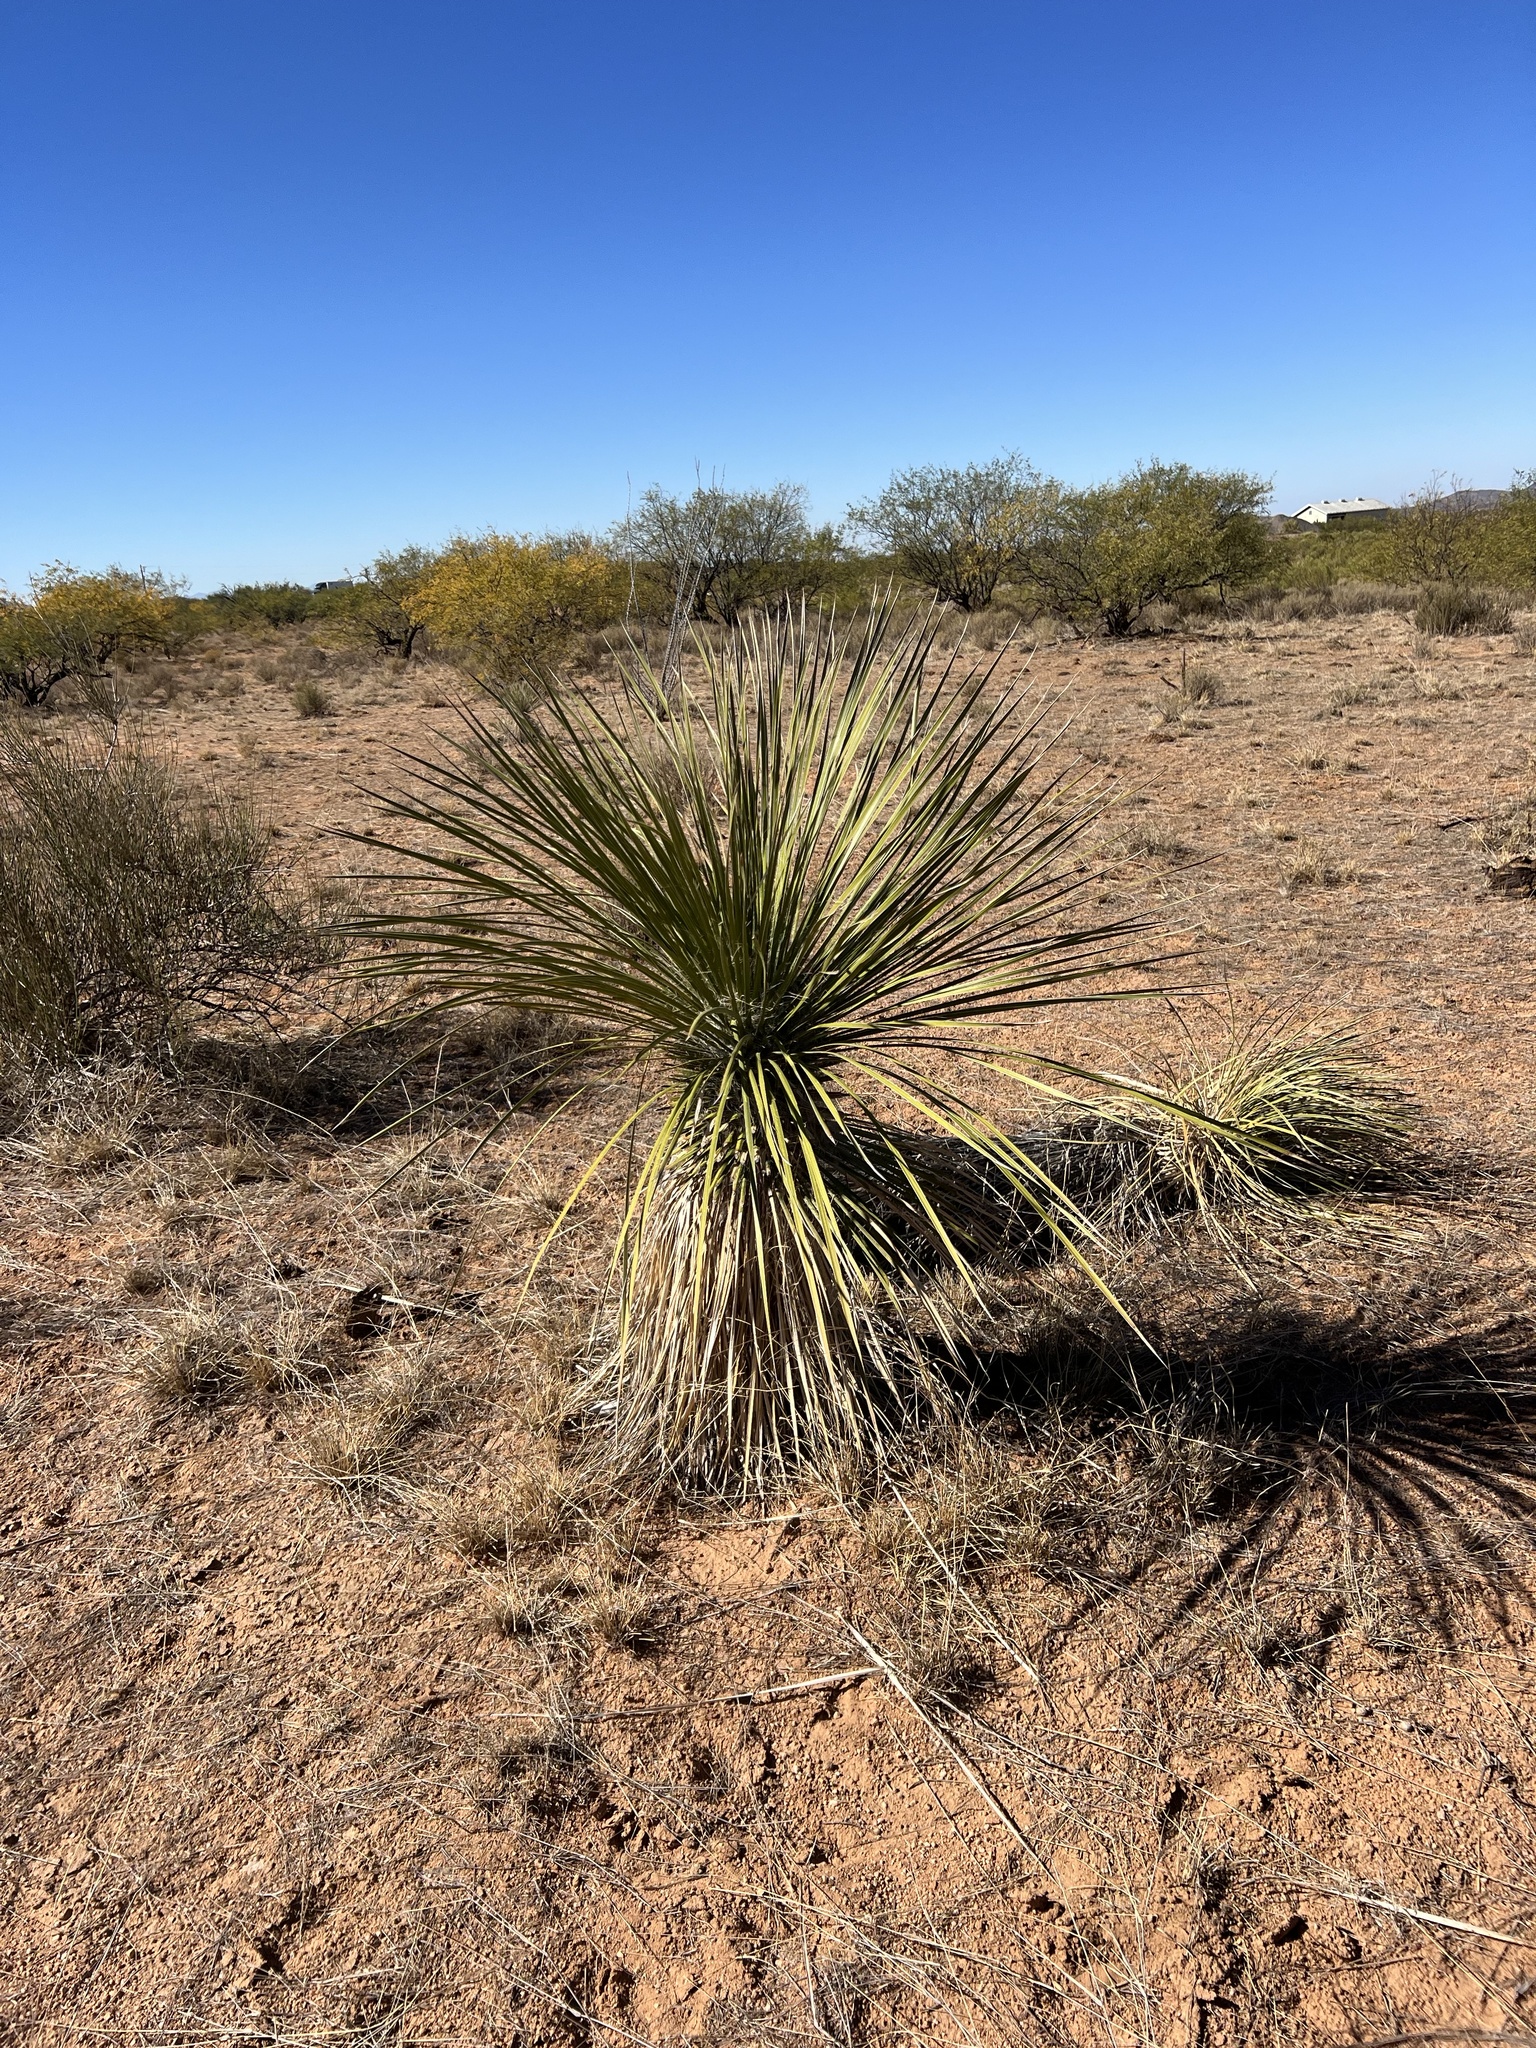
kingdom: Plantae
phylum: Tracheophyta
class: Liliopsida
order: Asparagales
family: Asparagaceae
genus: Yucca
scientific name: Yucca elata
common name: Palmella
